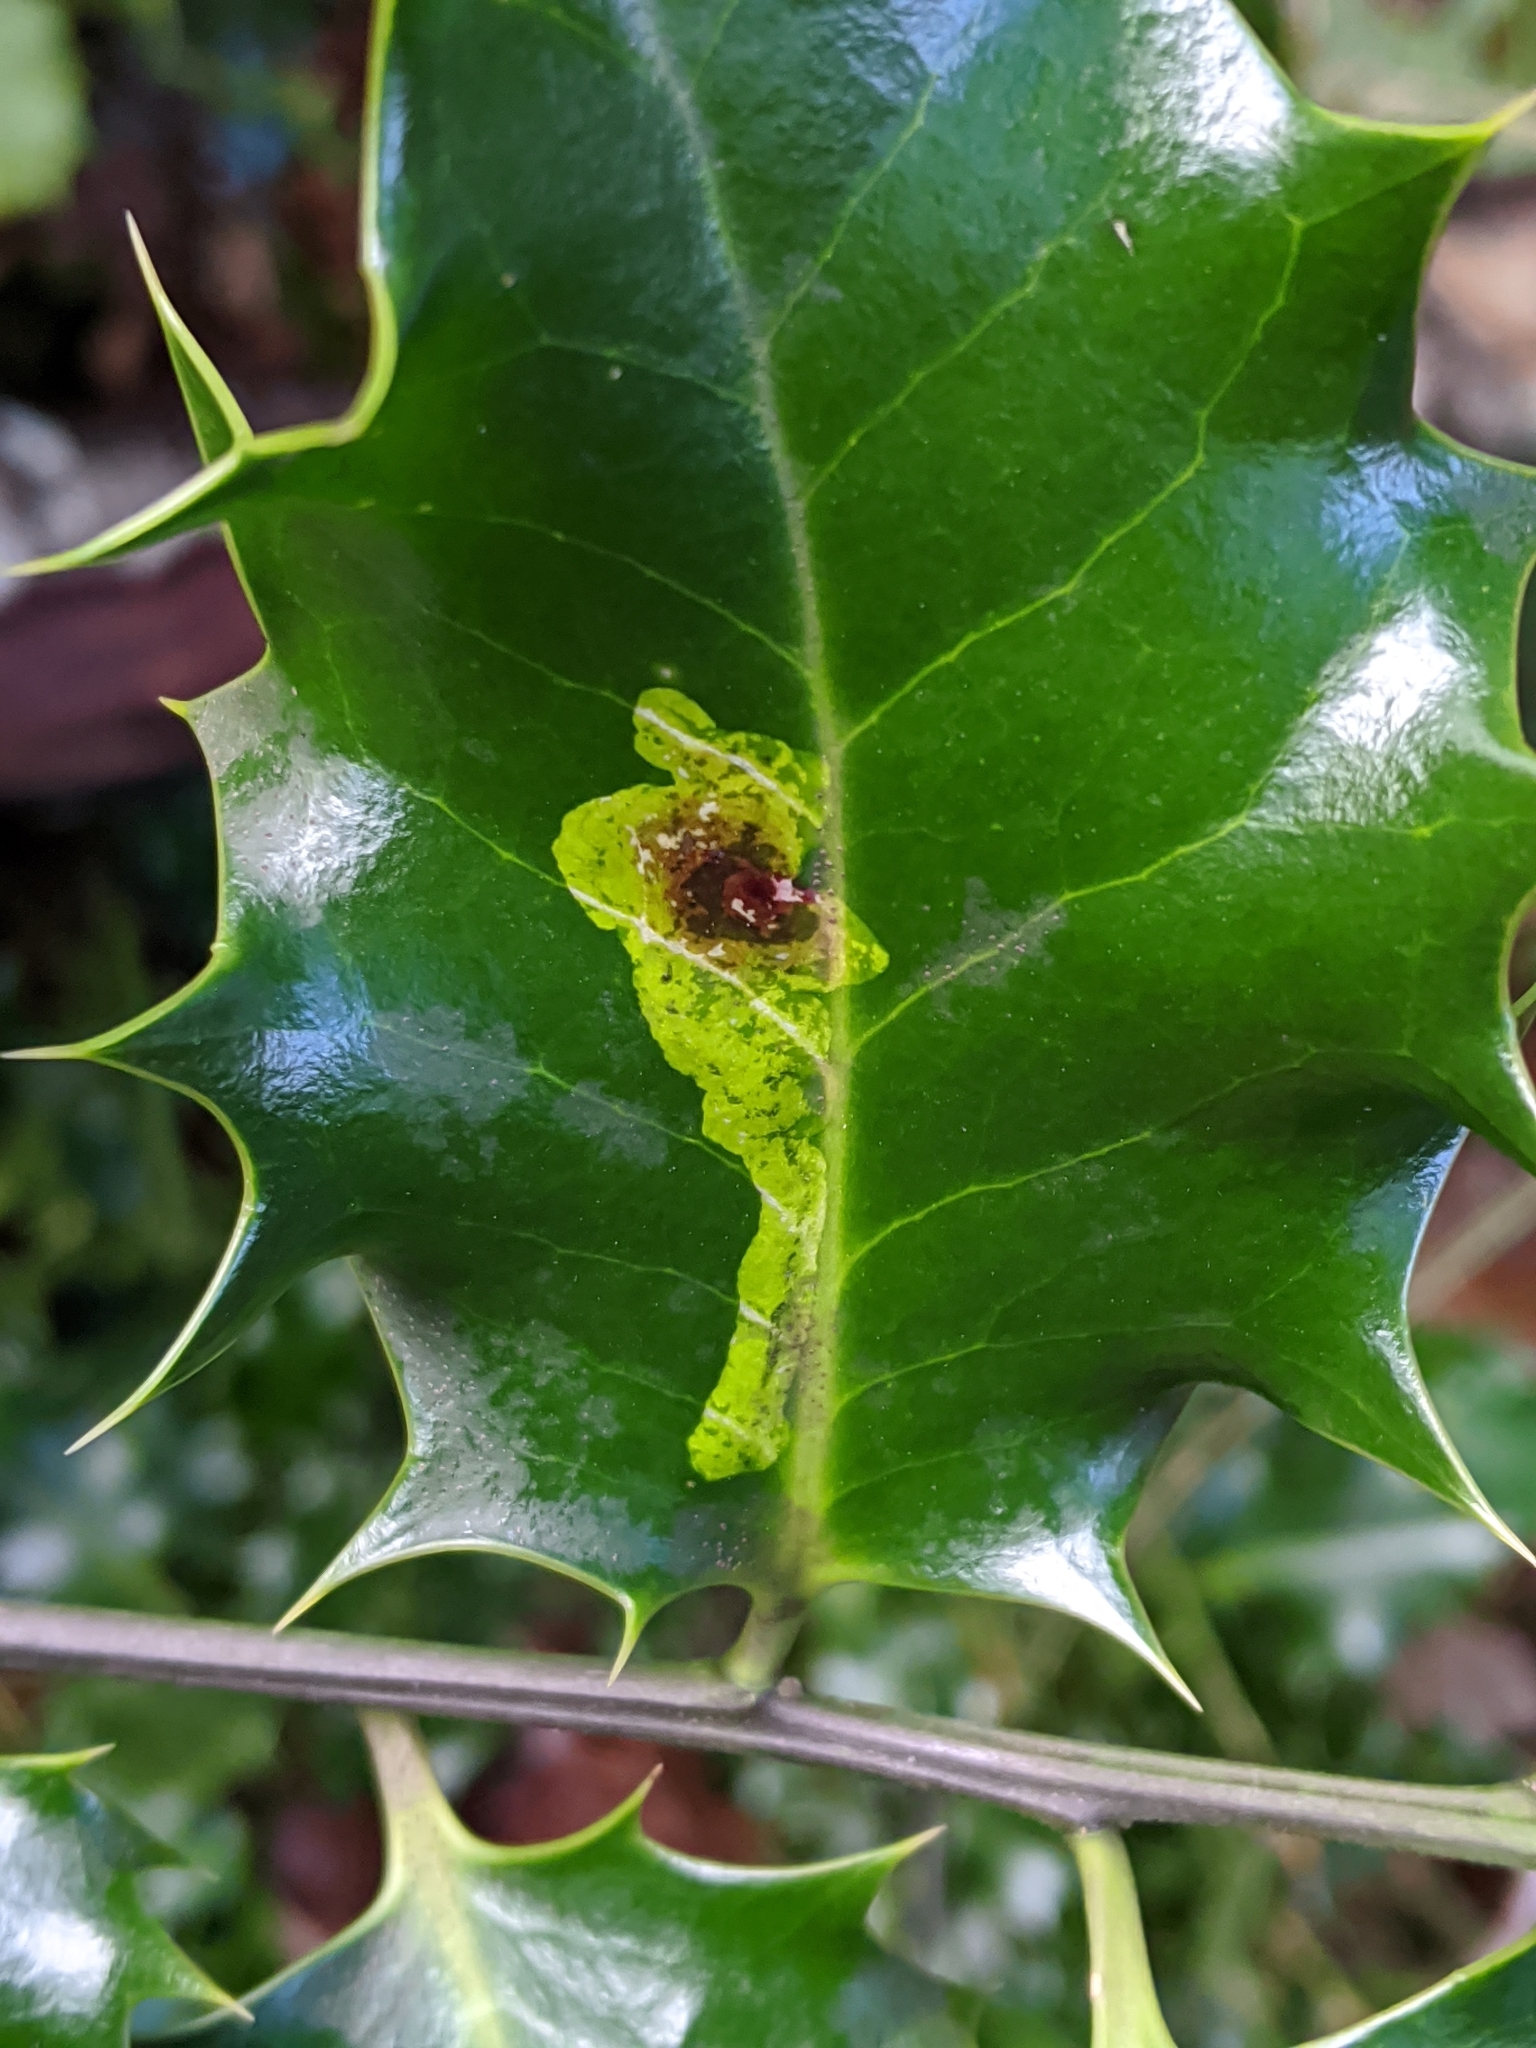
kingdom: Animalia
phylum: Arthropoda
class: Insecta
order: Diptera
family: Agromyzidae
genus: Phytomyza
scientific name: Phytomyza ilicis
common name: Holly leafminer
